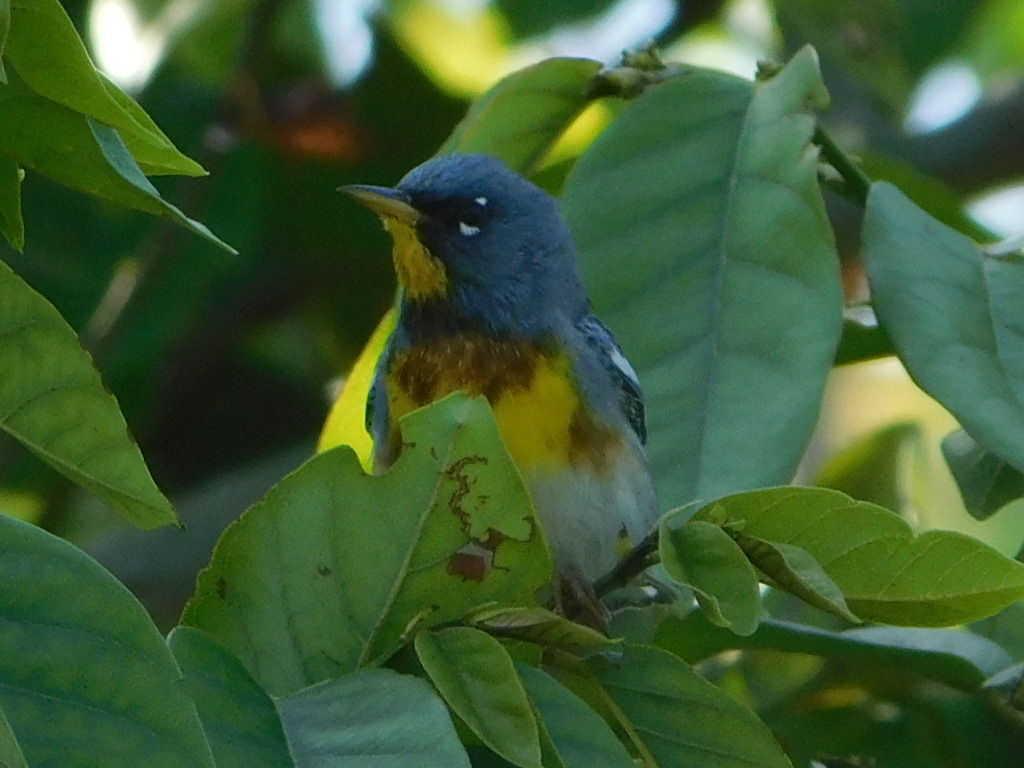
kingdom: Animalia
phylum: Chordata
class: Aves
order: Passeriformes
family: Parulidae
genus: Setophaga
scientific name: Setophaga americana
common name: Northern parula
